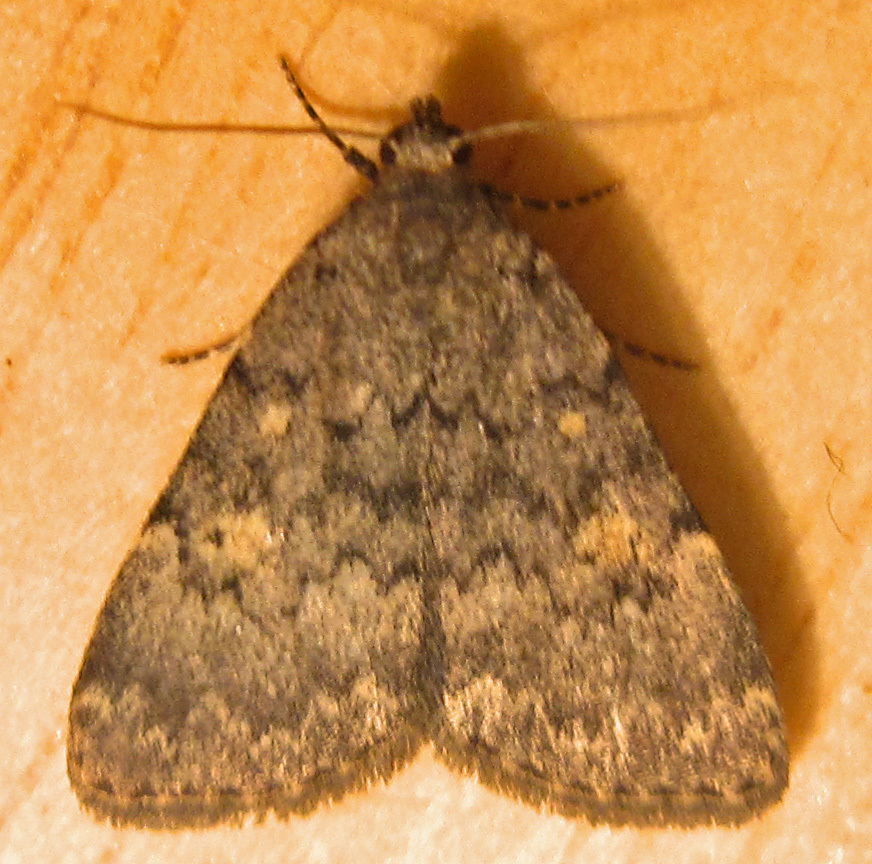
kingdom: Animalia
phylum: Arthropoda
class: Insecta
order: Lepidoptera
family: Erebidae
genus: Idia
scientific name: Idia aemula
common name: Common idia moth
